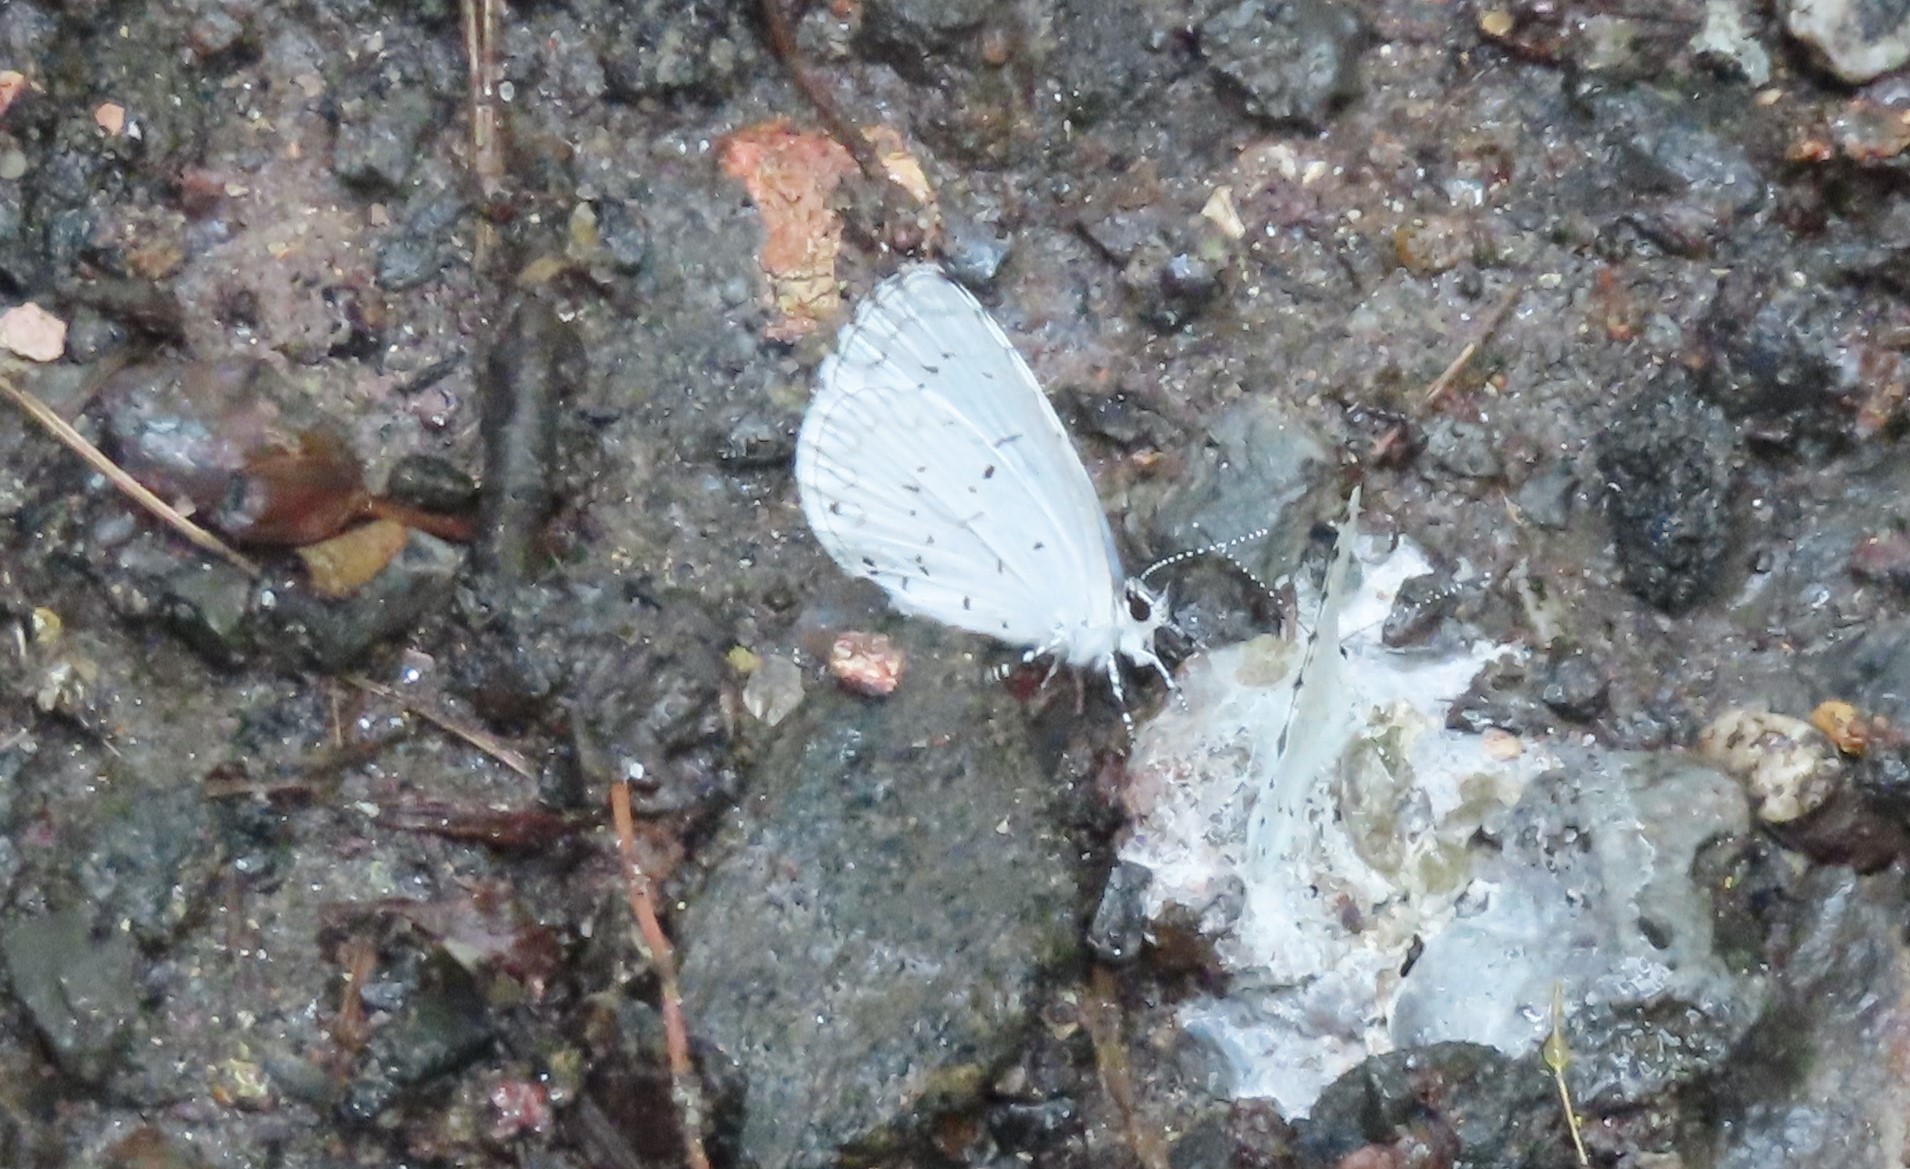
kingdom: Animalia
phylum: Arthropoda
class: Insecta
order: Lepidoptera
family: Lycaenidae
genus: Cyaniris
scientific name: Cyaniris neglecta
